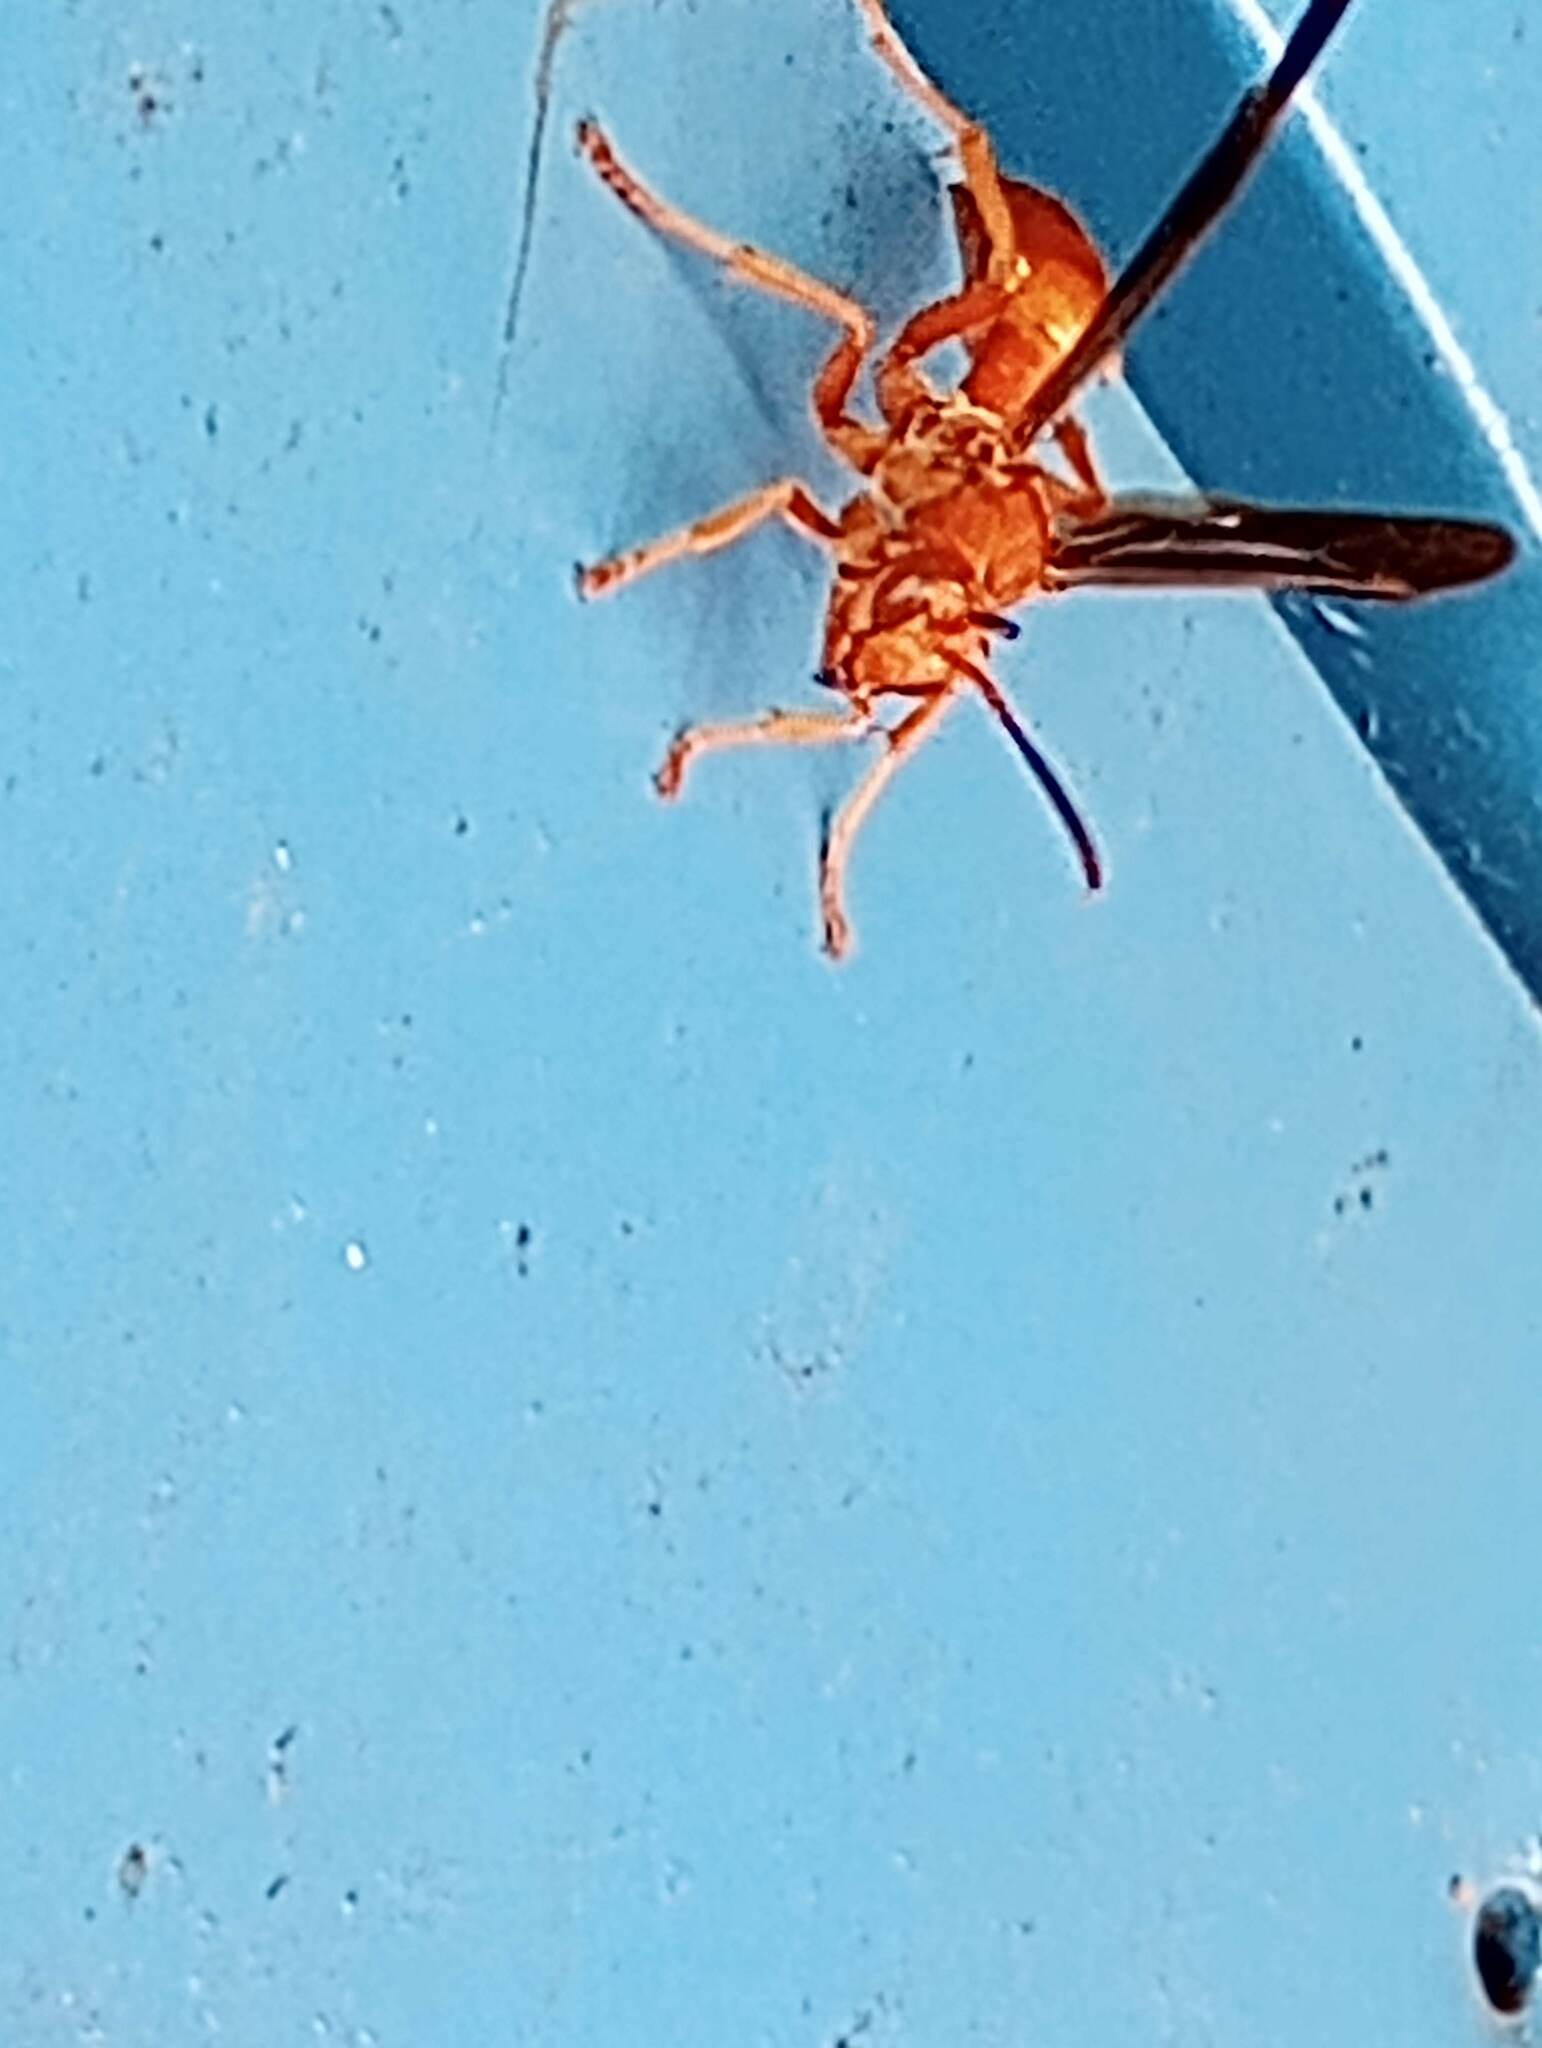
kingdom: Animalia
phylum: Arthropoda
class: Insecta
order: Hymenoptera
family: Vespidae
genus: Fuscopolistes
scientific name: Fuscopolistes
